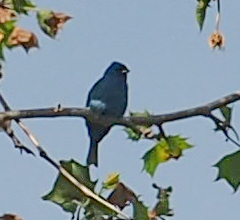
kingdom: Animalia
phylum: Chordata
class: Aves
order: Passeriformes
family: Cardinalidae
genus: Passerina
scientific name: Passerina cyanea
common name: Indigo bunting
